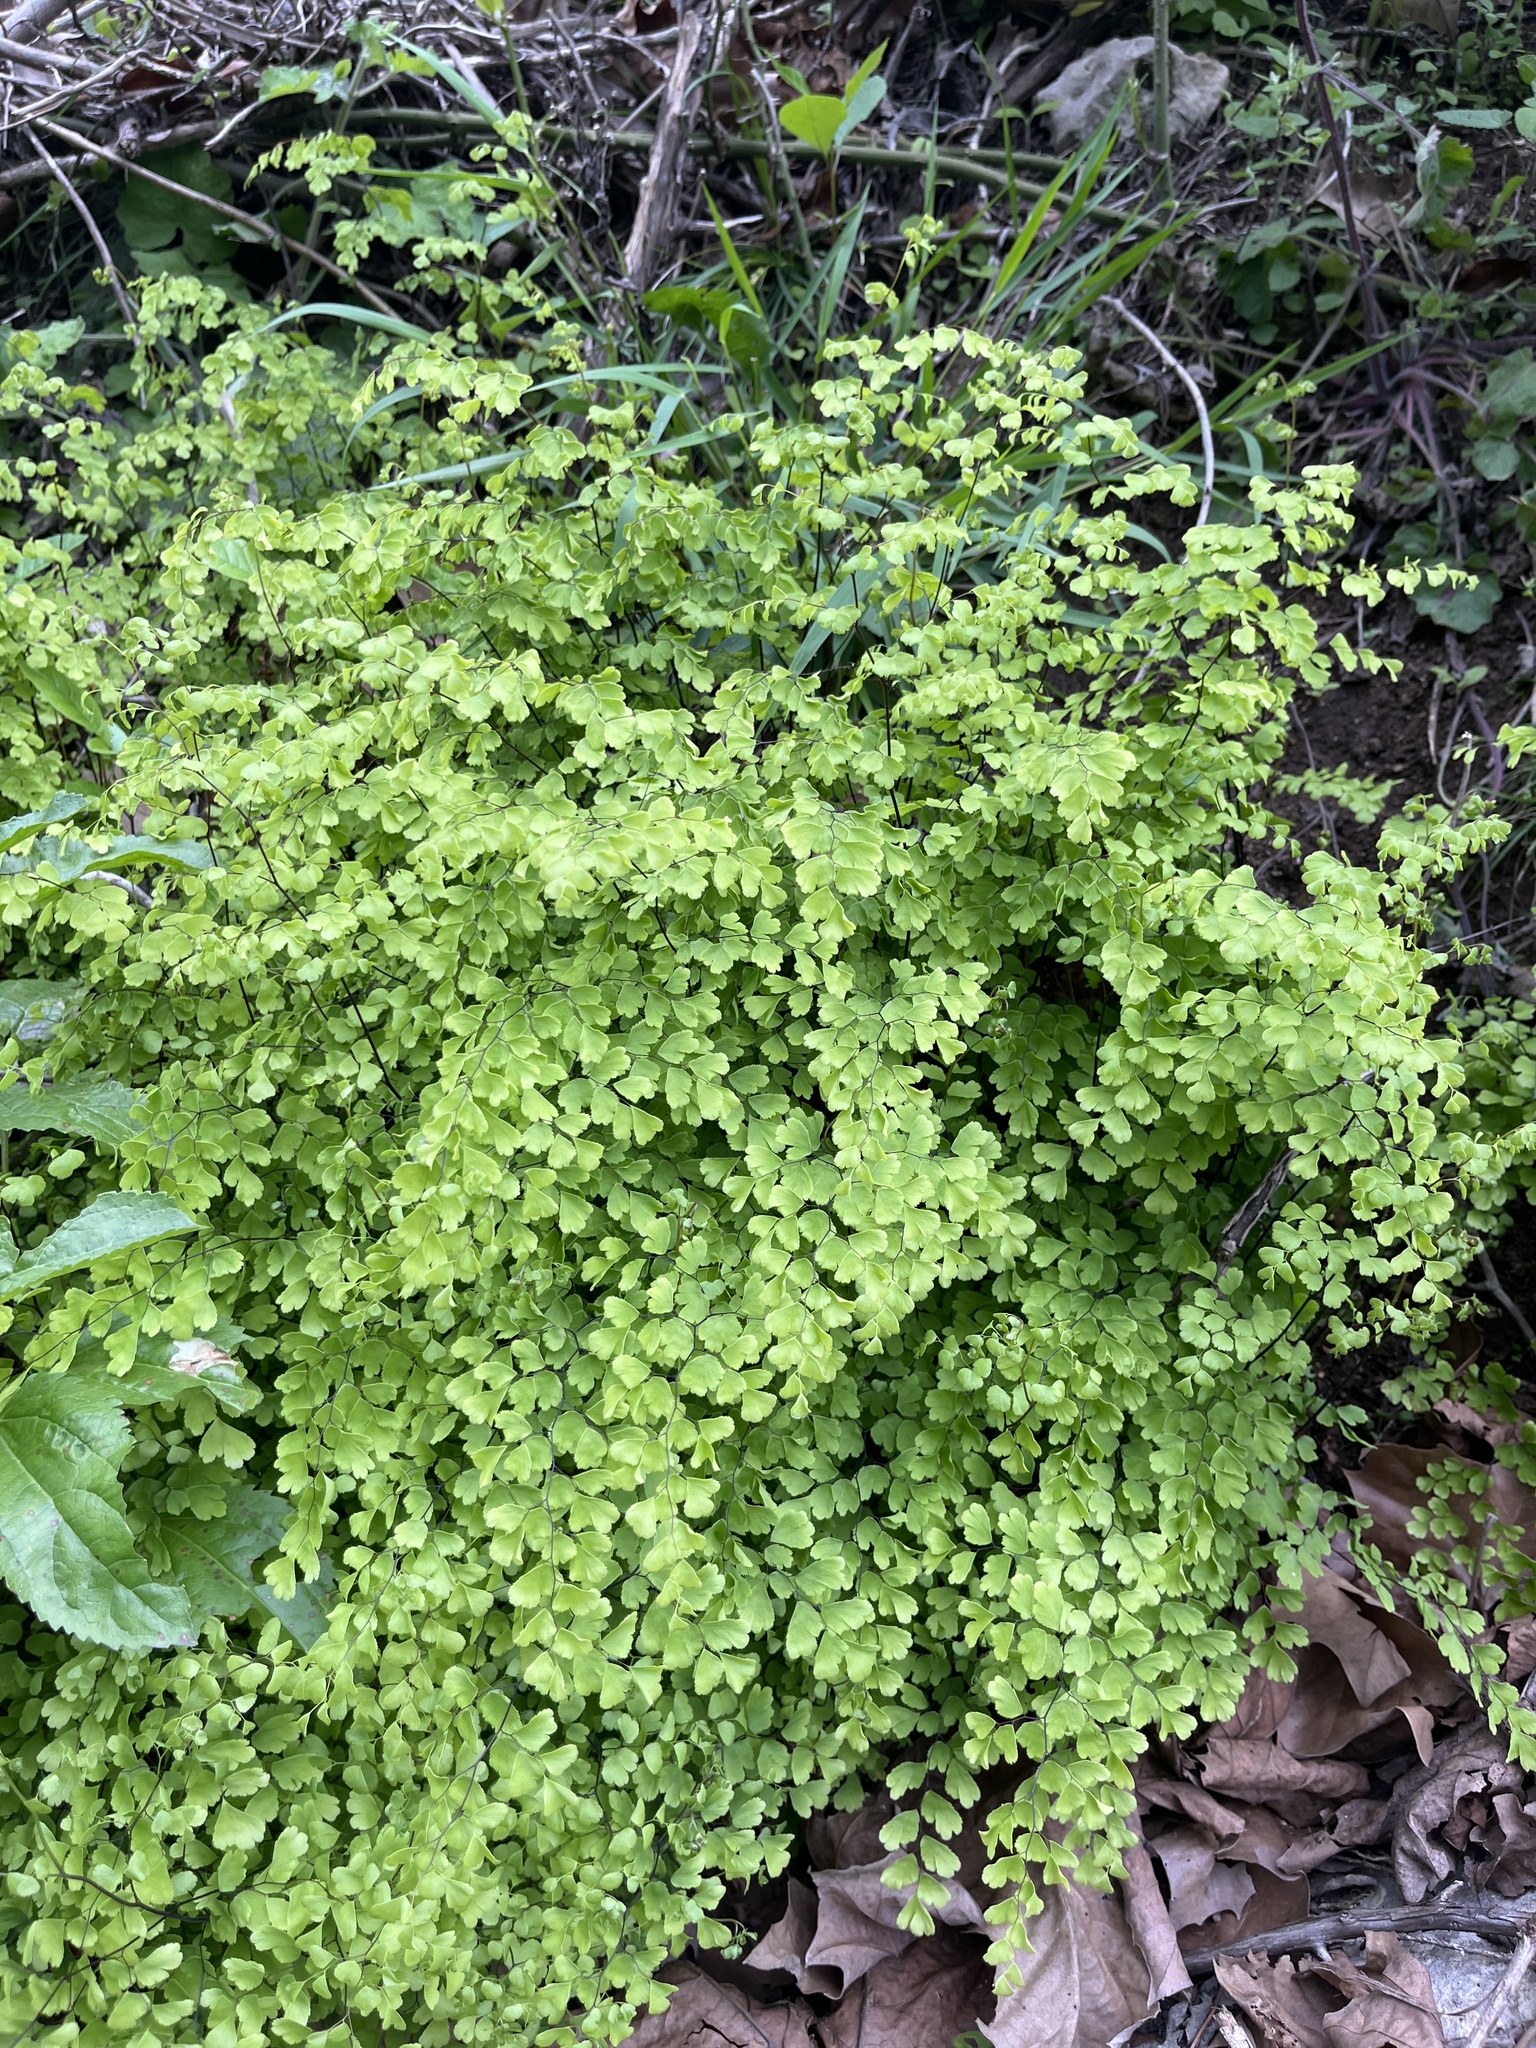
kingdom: Plantae
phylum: Tracheophyta
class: Polypodiopsida
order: Polypodiales
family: Pteridaceae
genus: Adiantum
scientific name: Adiantum capillus-veneris
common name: Maidenhair fern
